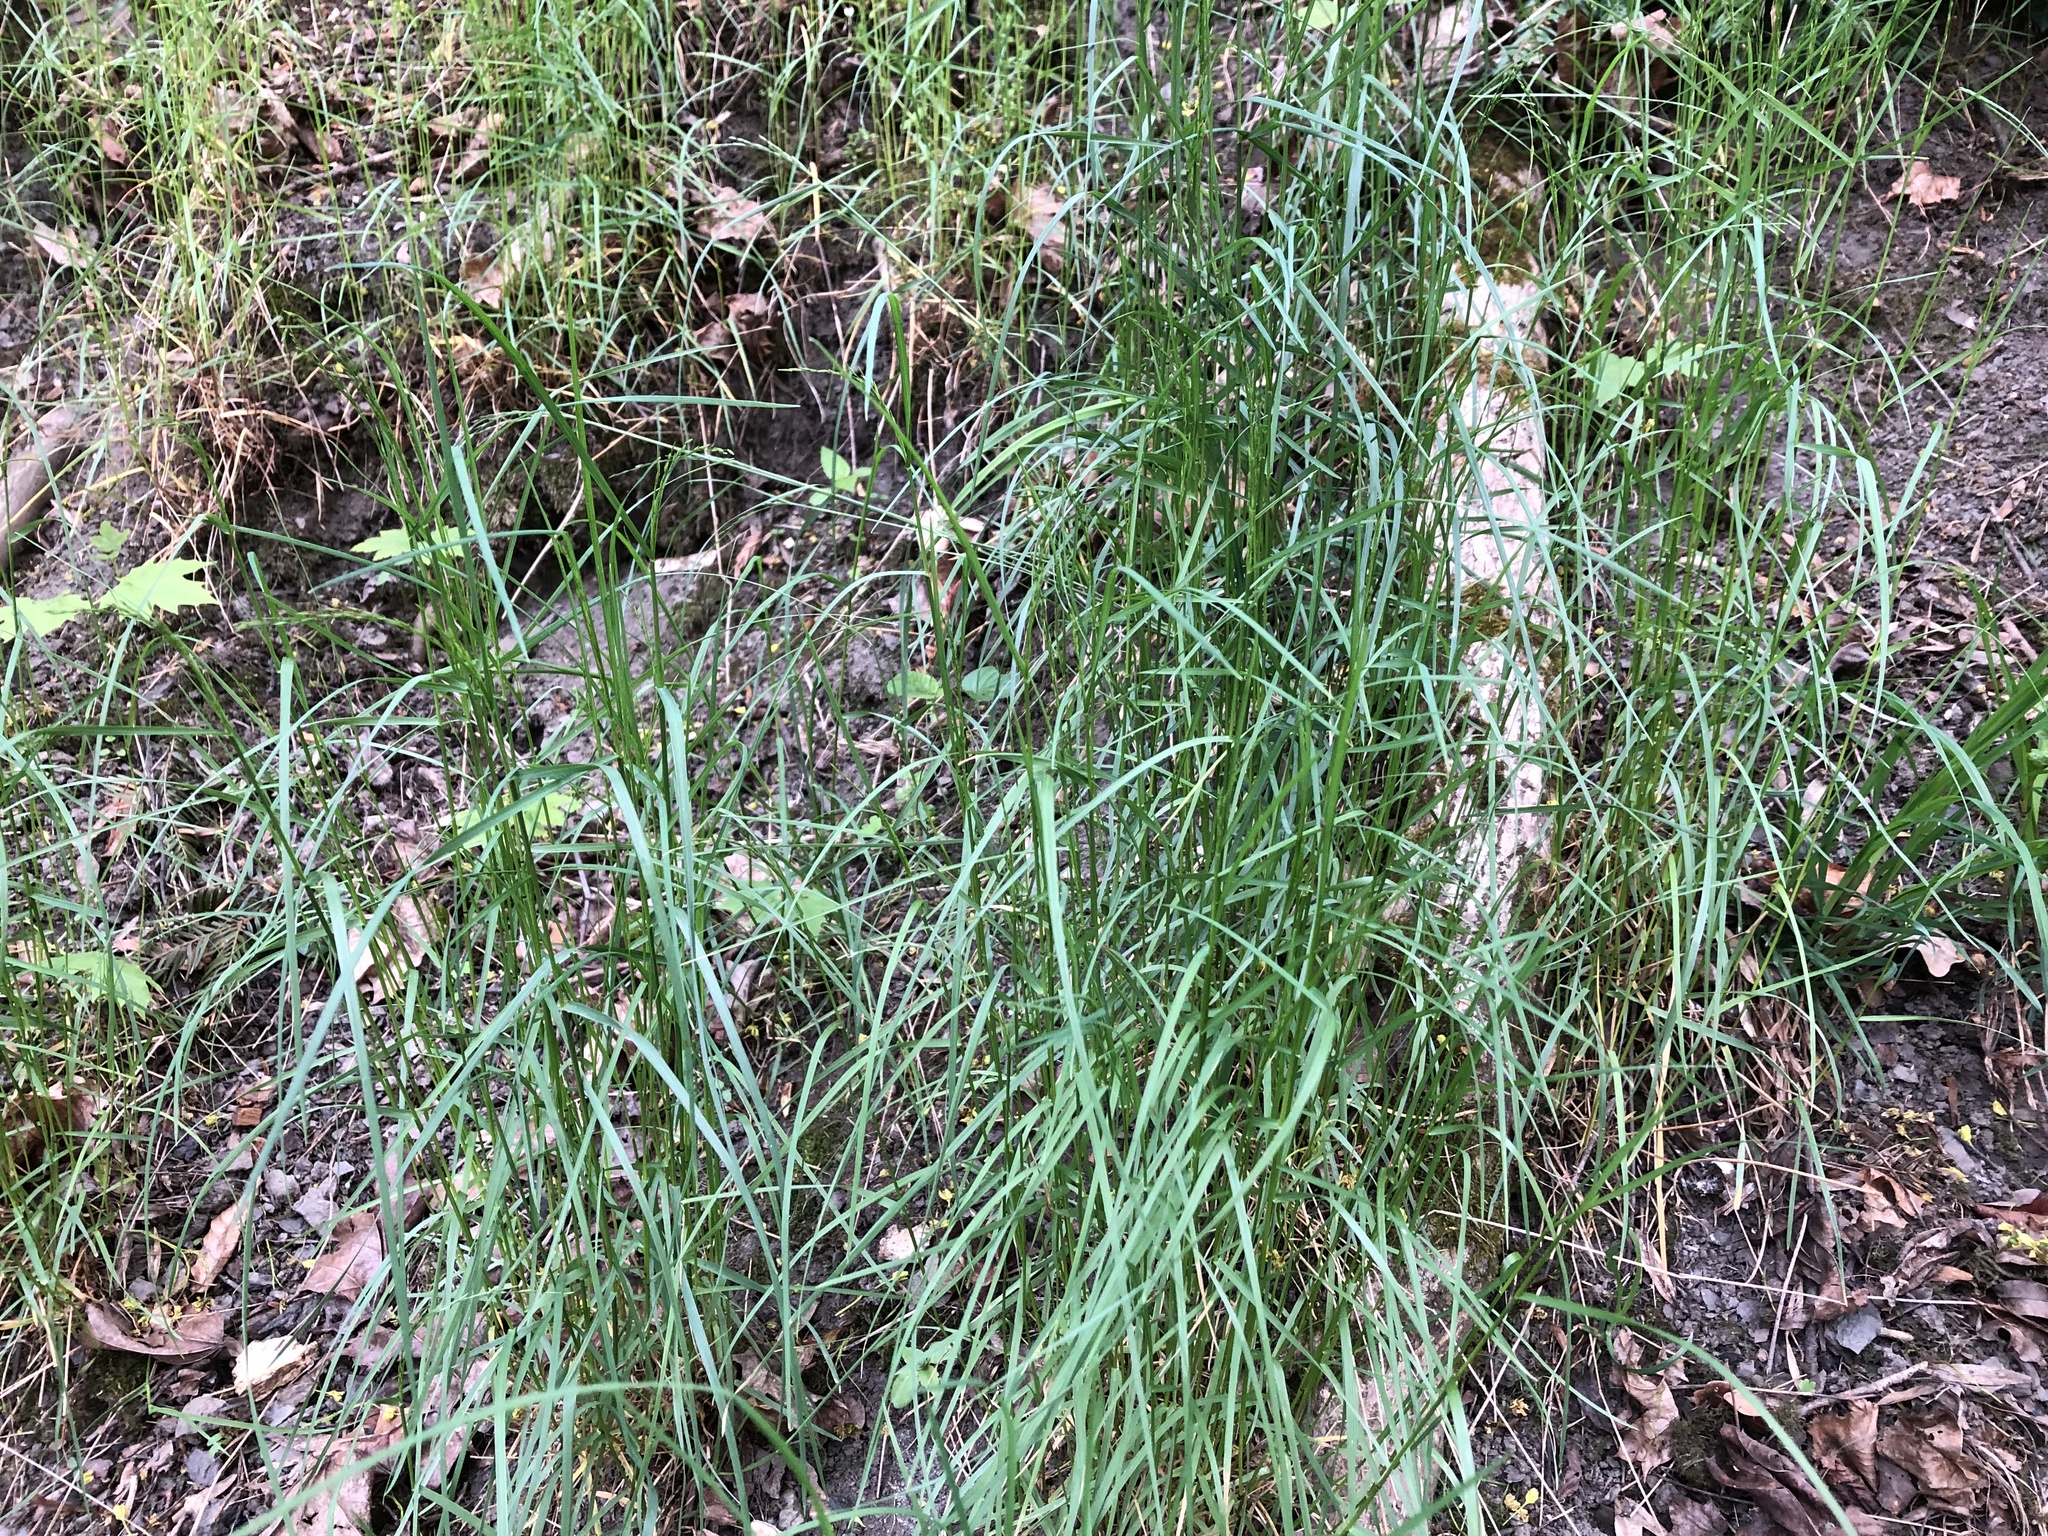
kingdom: Plantae
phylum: Tracheophyta
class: Liliopsida
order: Poales
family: Poaceae
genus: Poa
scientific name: Poa nemoralis
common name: Wood bluegrass
